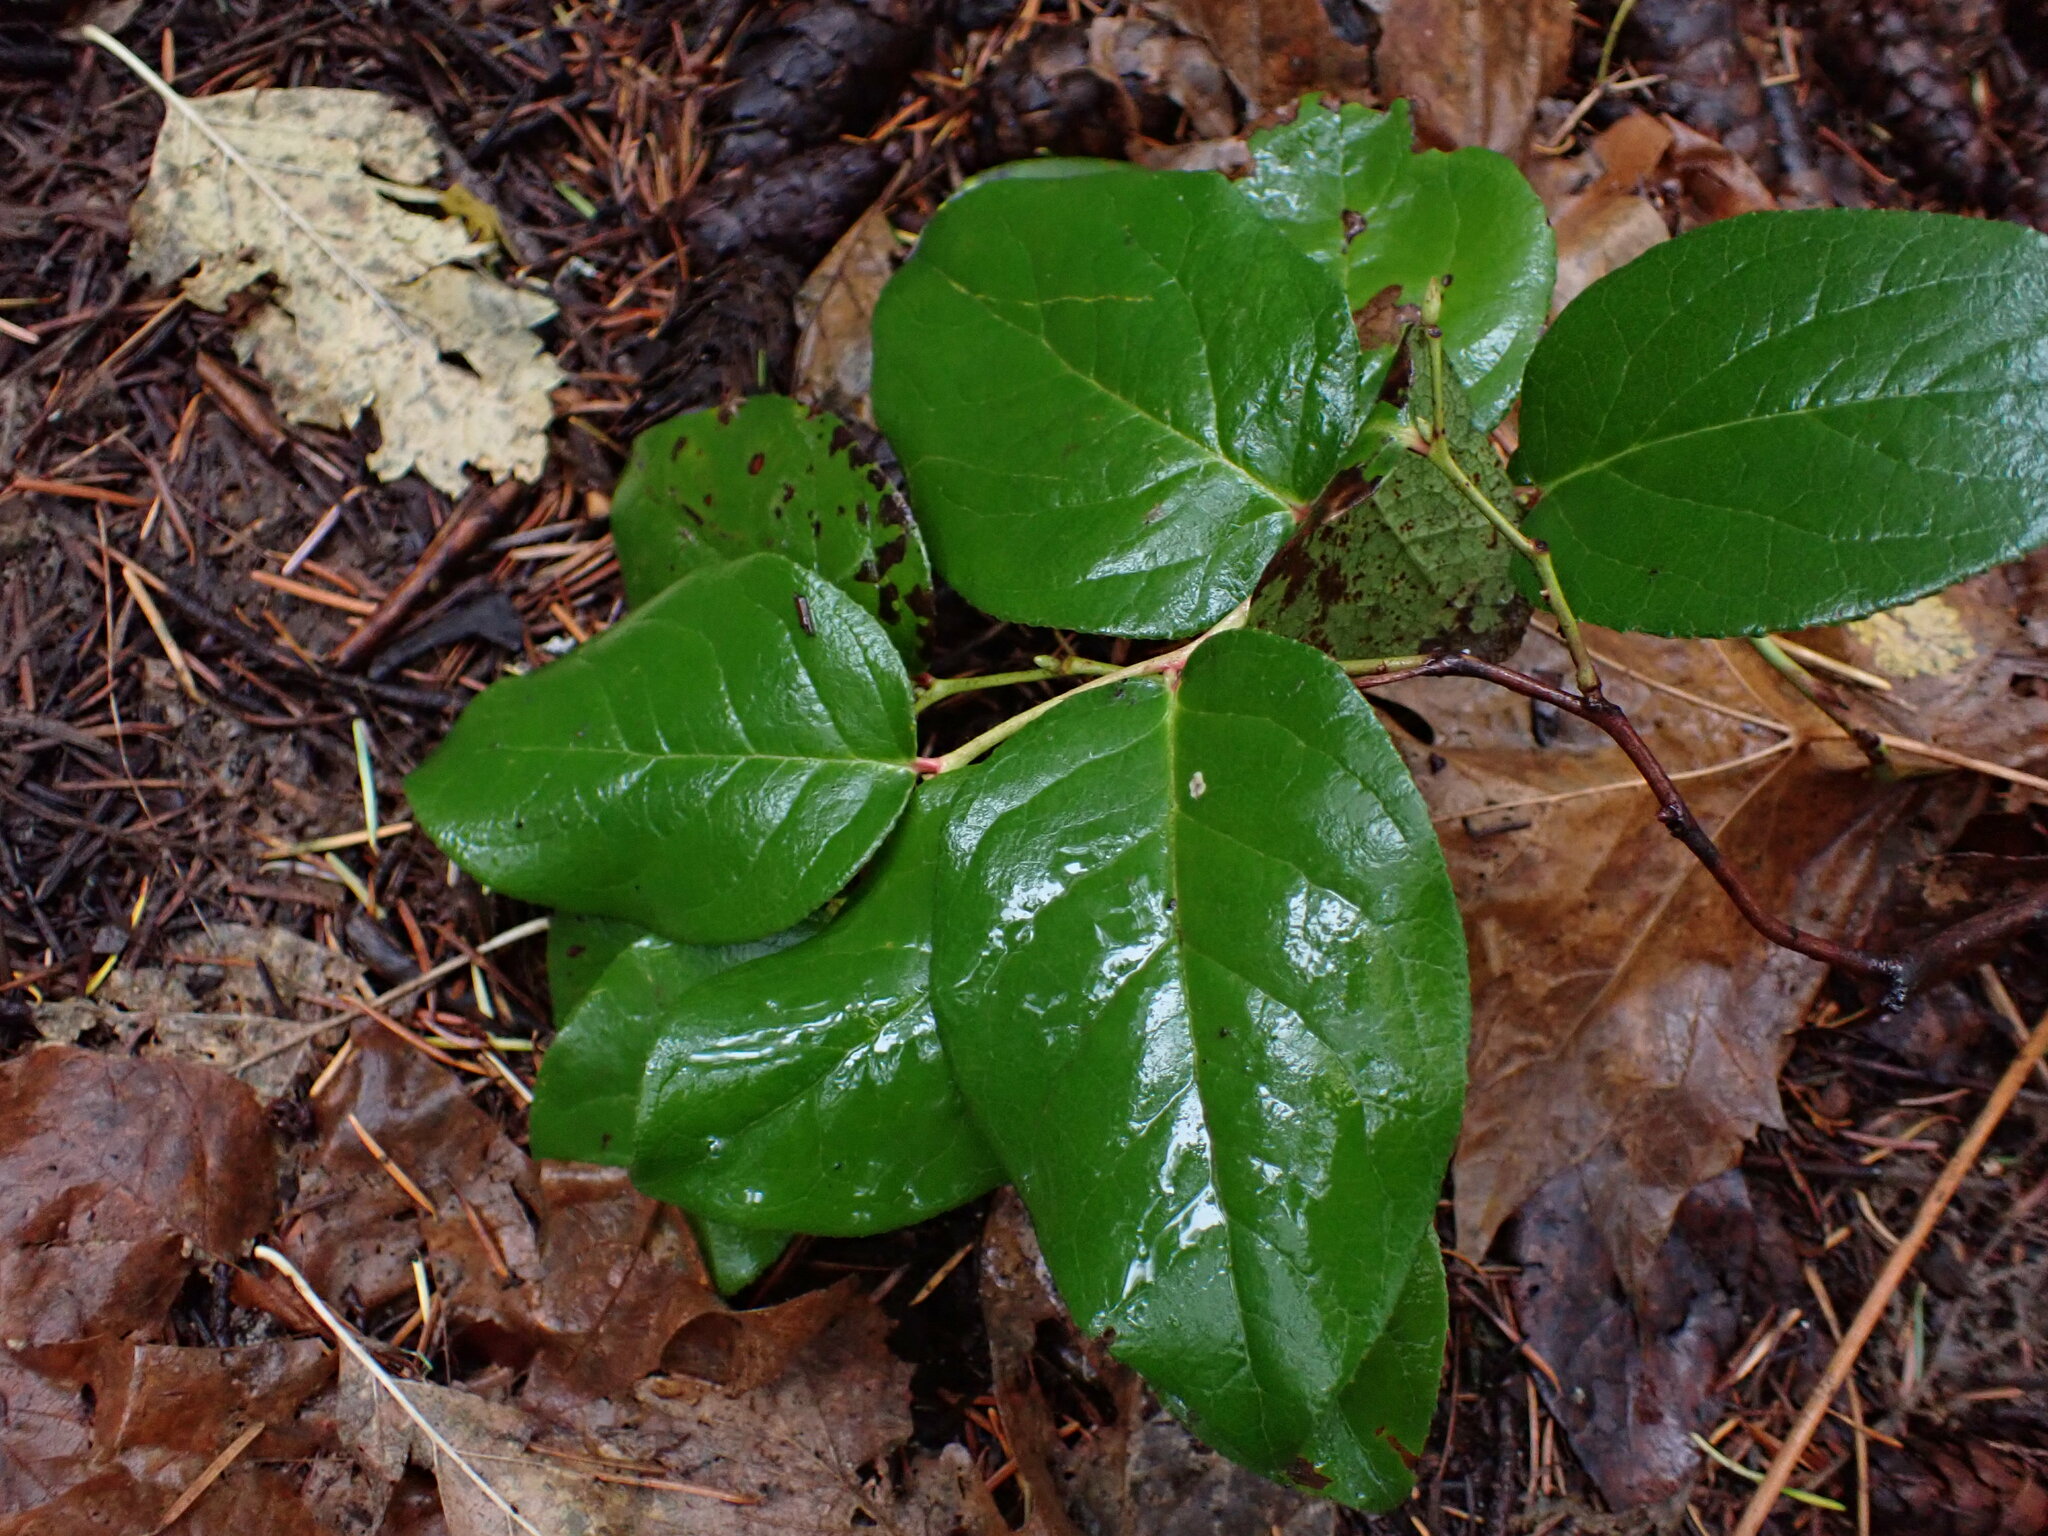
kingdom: Plantae
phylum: Tracheophyta
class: Magnoliopsida
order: Ericales
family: Ericaceae
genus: Gaultheria
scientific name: Gaultheria shallon
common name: Shallon
